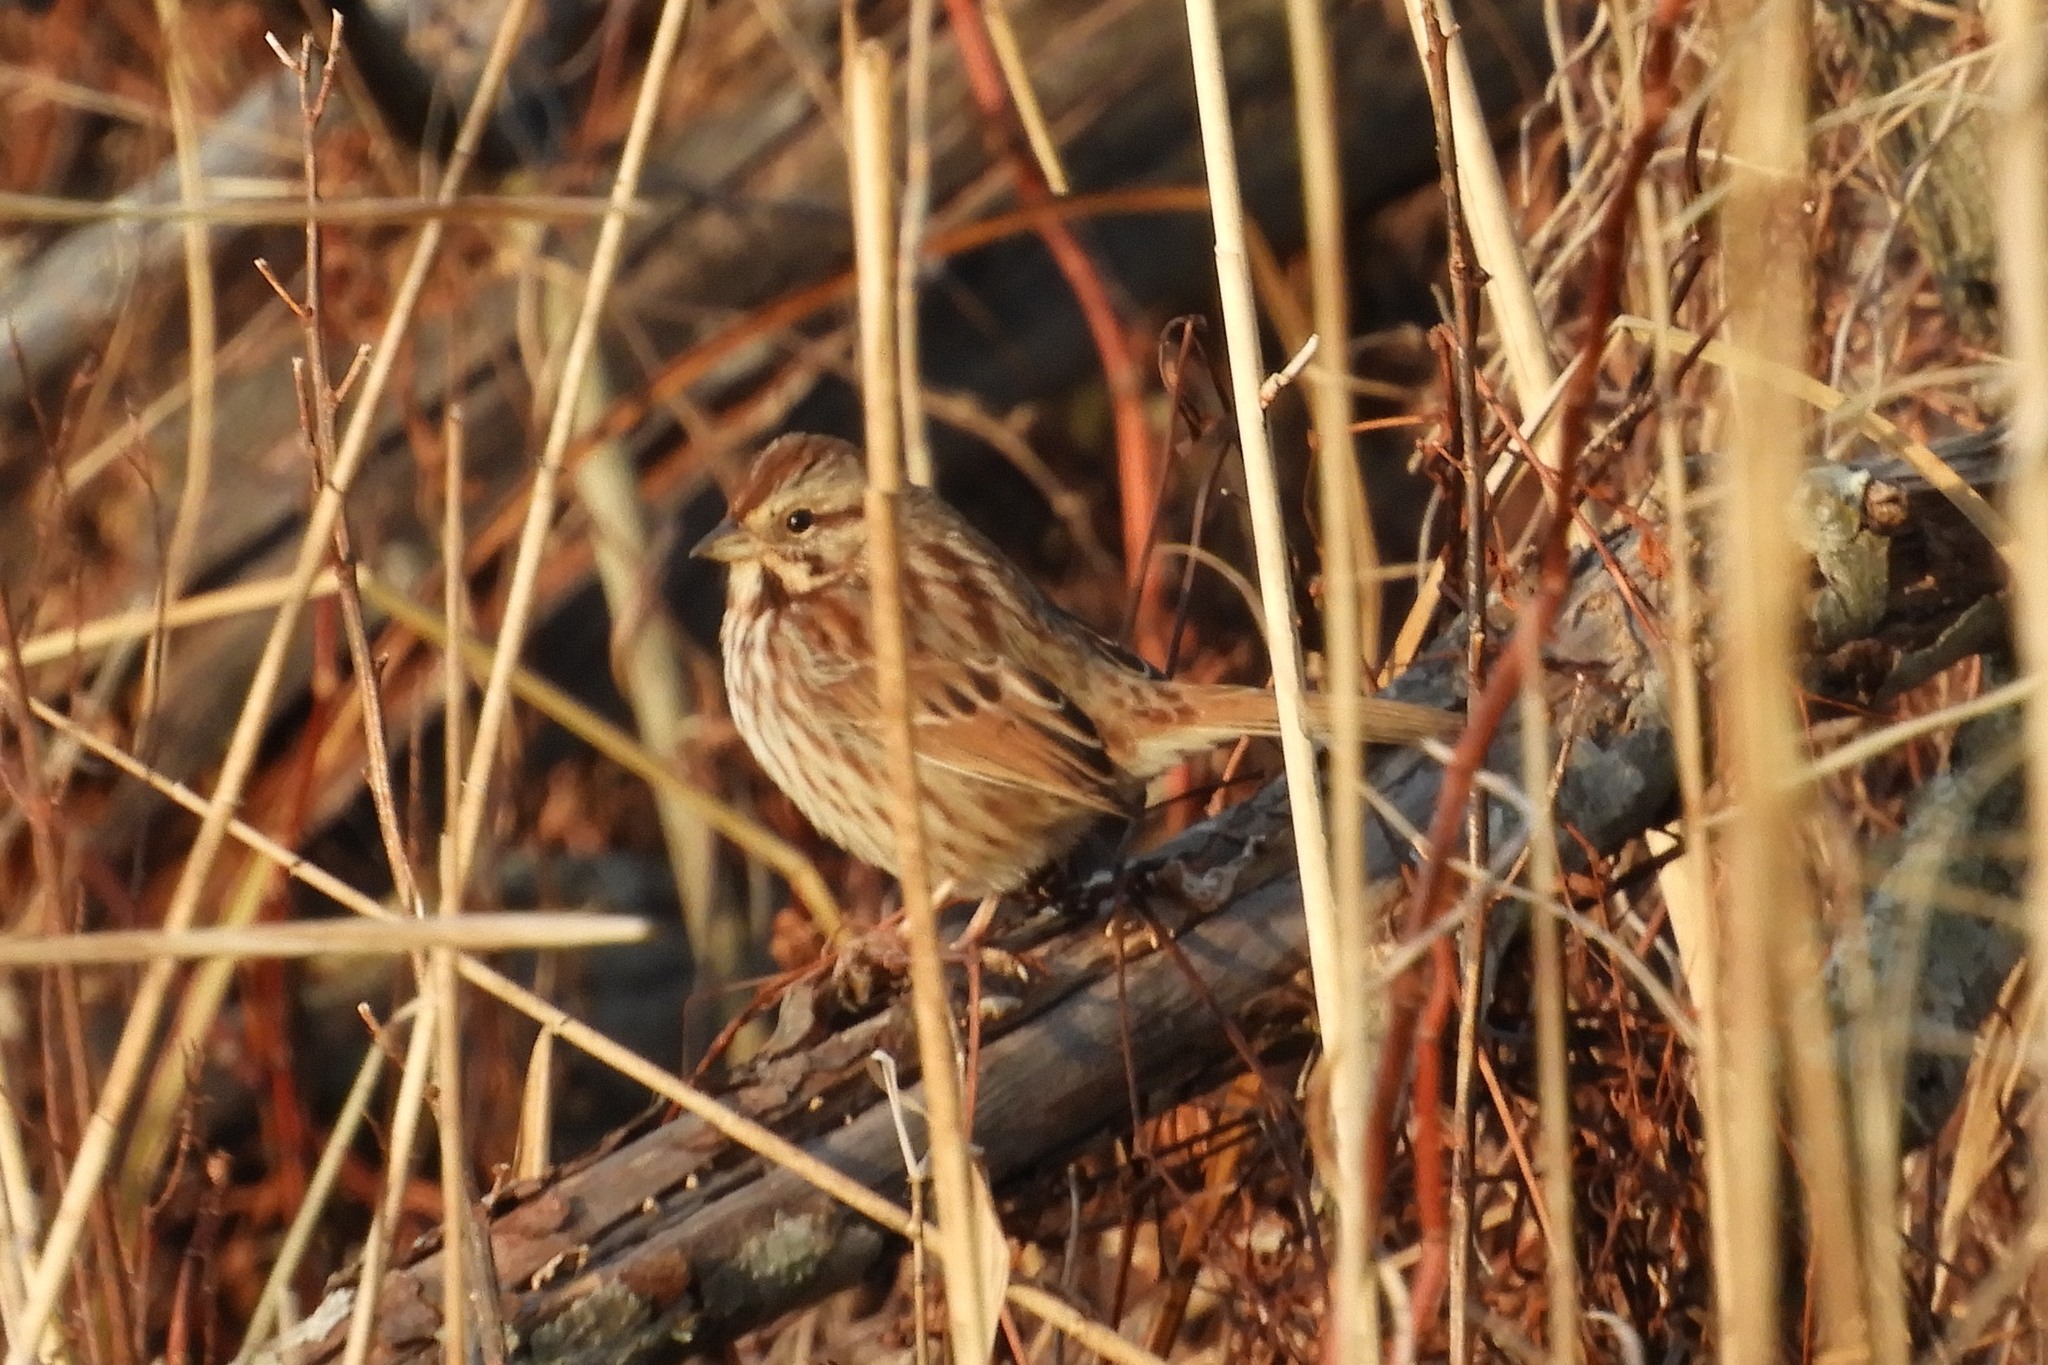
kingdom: Animalia
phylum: Chordata
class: Aves
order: Passeriformes
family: Passerellidae
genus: Melospiza
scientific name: Melospiza melodia
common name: Song sparrow
